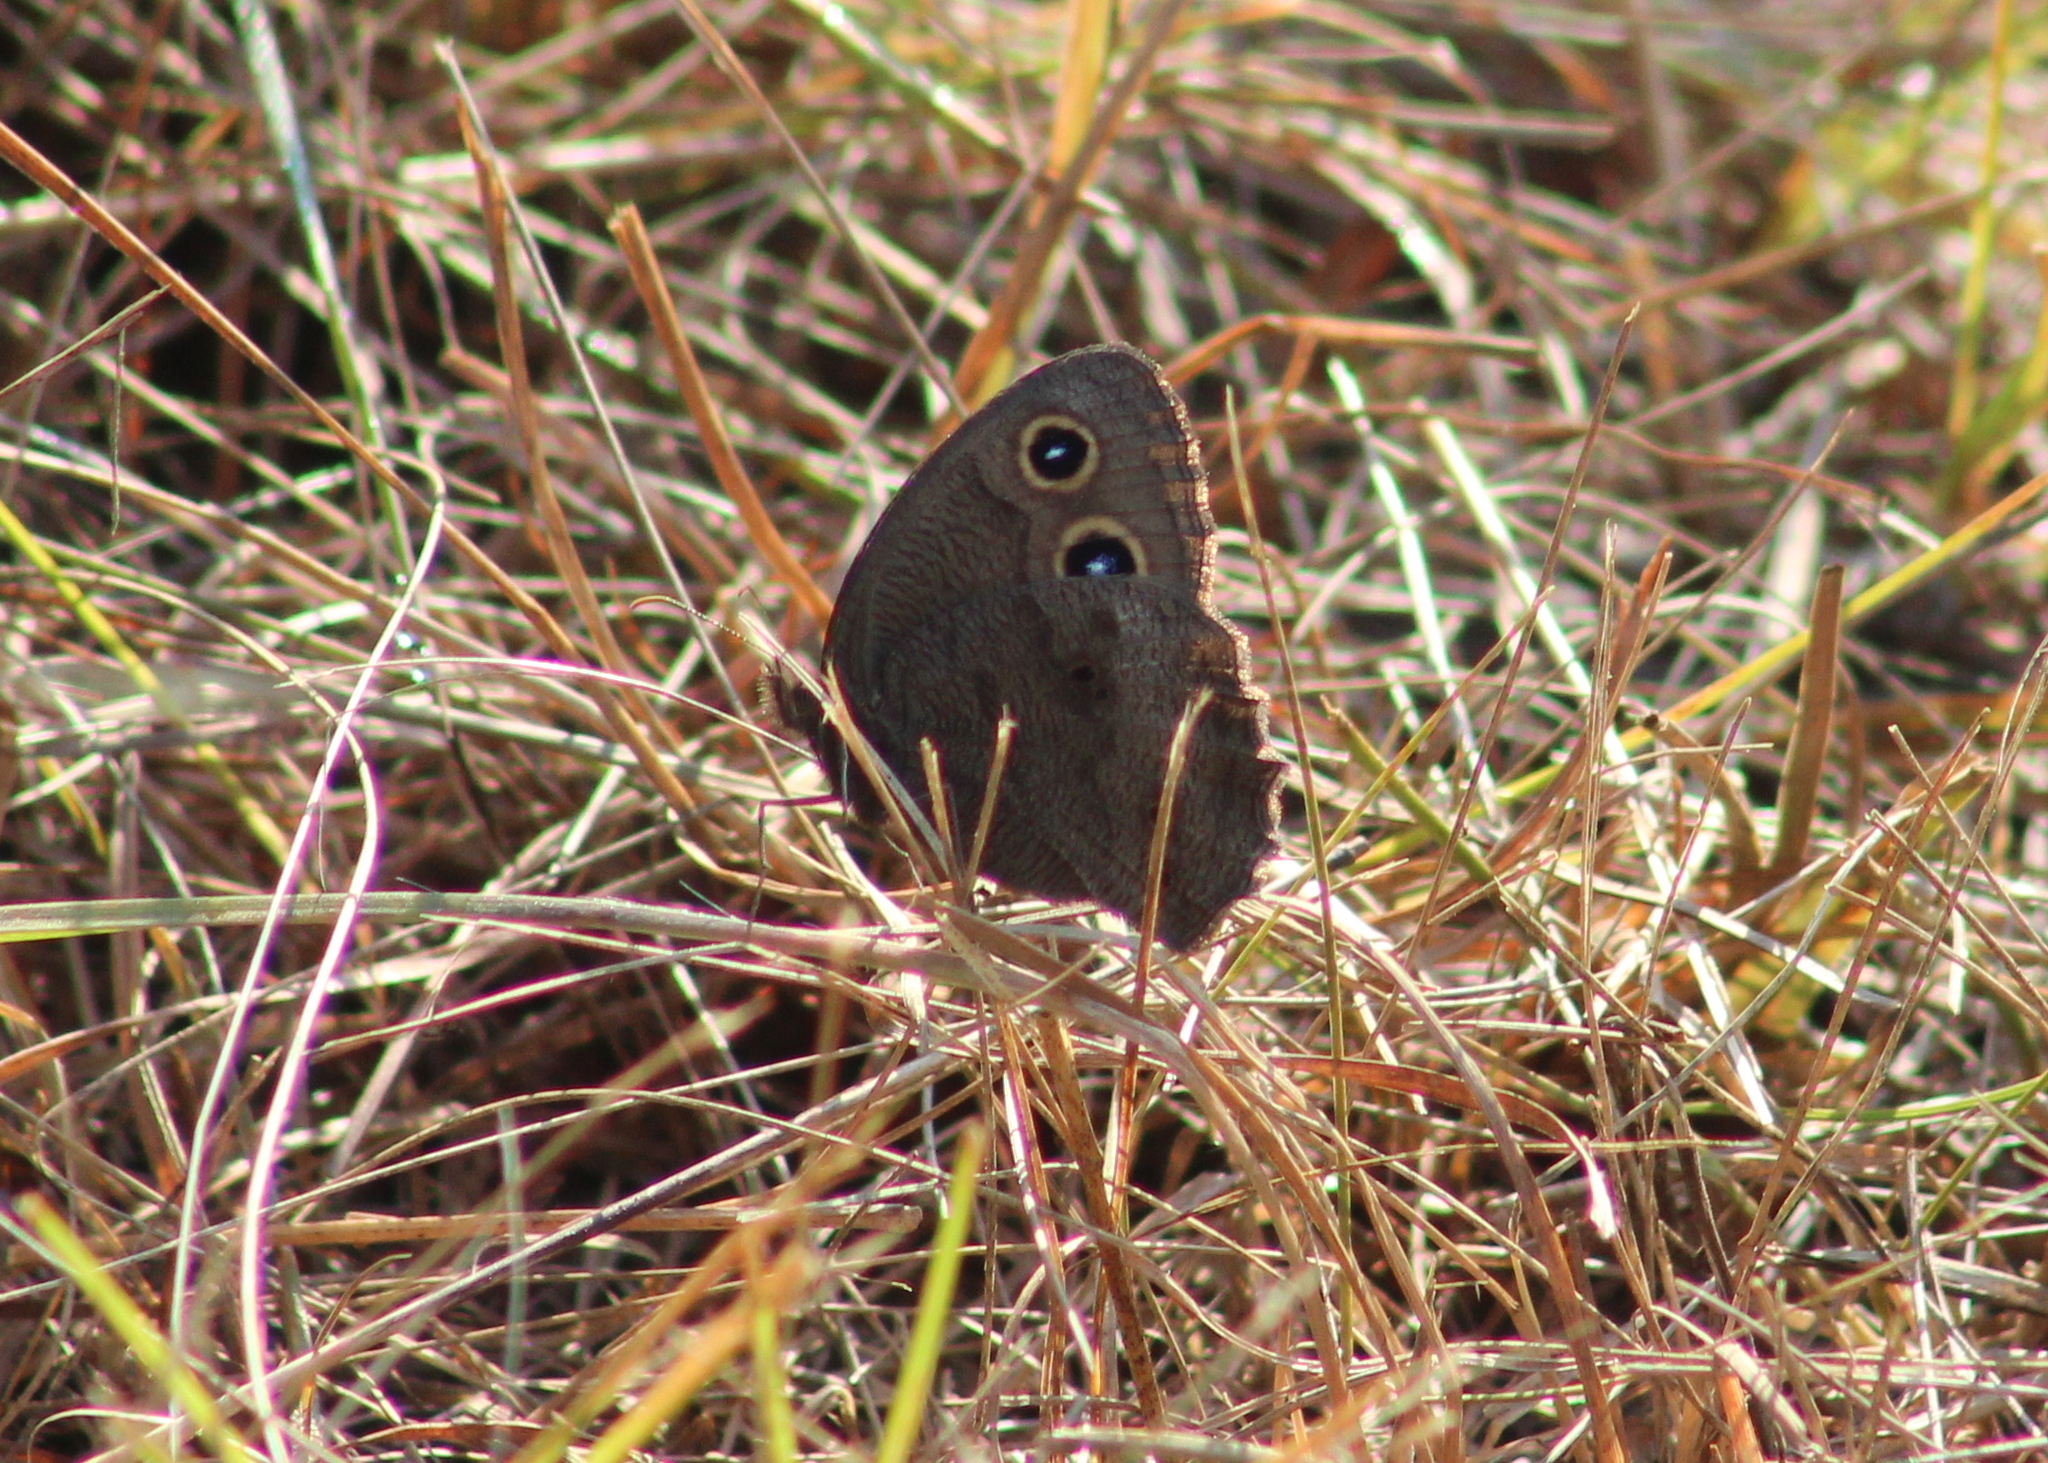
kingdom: Animalia
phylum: Arthropoda
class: Insecta
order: Lepidoptera
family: Nymphalidae
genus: Cercyonis
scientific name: Cercyonis pegala
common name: Common wood-nymph
